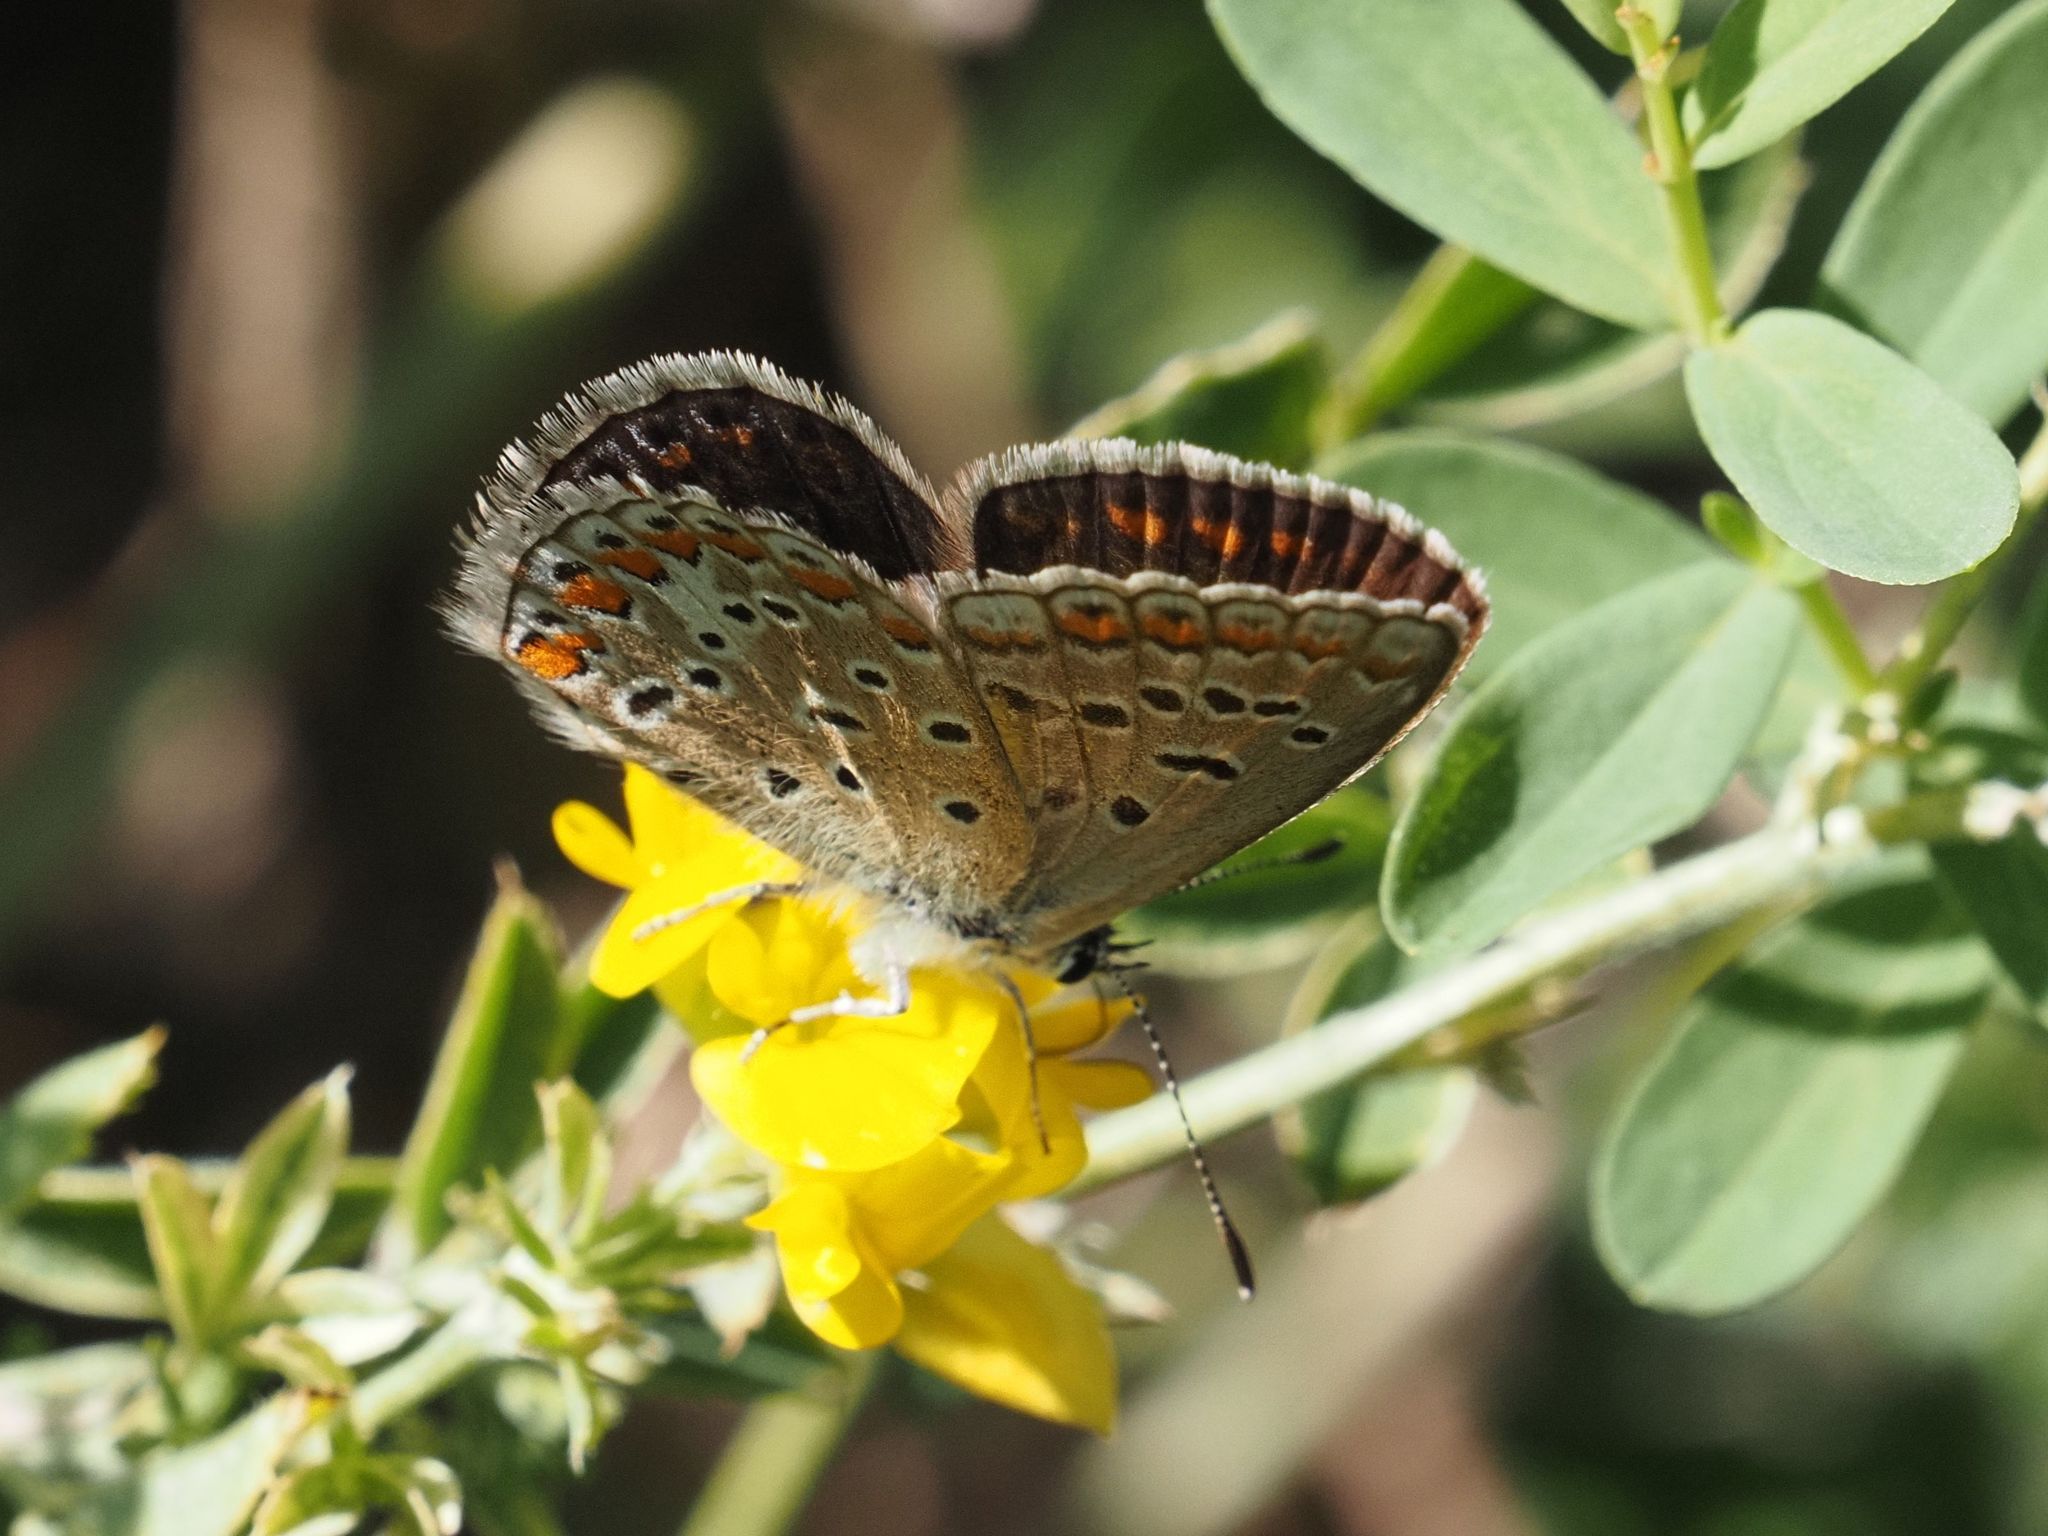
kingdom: Animalia
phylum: Arthropoda
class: Insecta
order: Lepidoptera
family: Lycaenidae
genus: Polyommatus
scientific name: Polyommatus icarus
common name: Common blue
